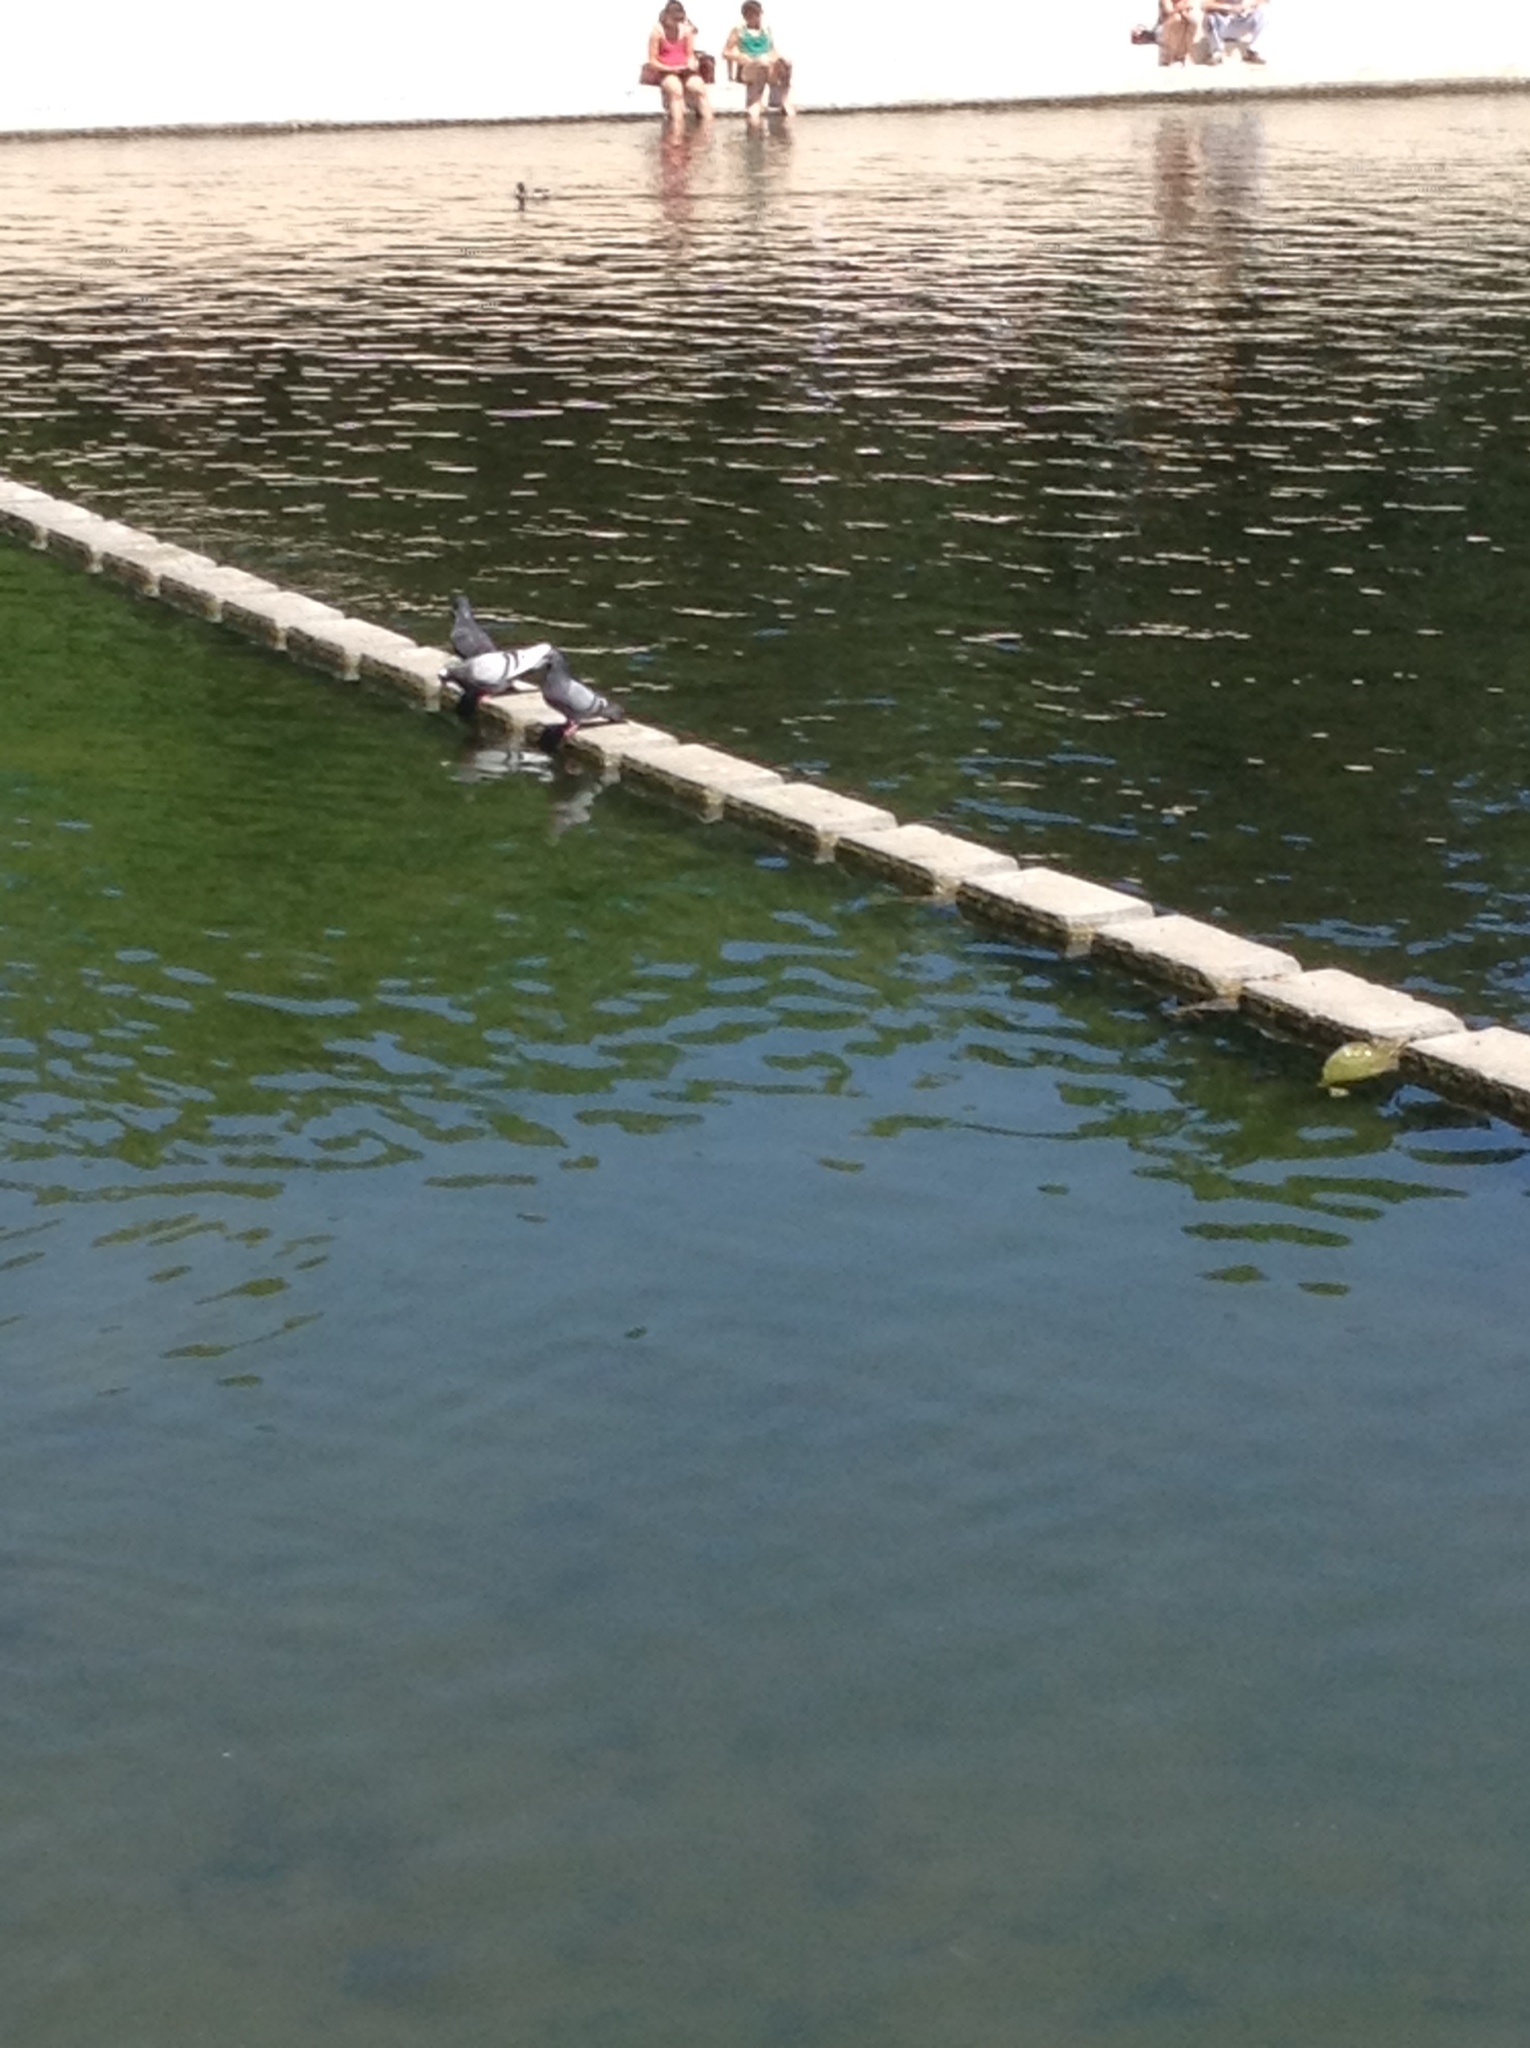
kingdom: Animalia
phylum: Chordata
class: Aves
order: Columbiformes
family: Columbidae
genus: Columba
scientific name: Columba livia
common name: Rock pigeon
